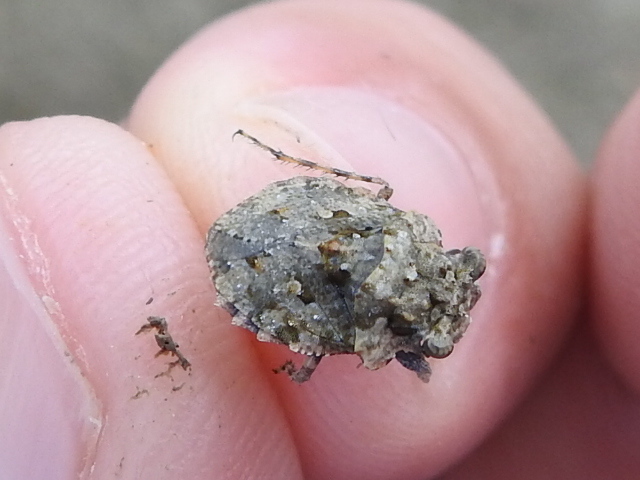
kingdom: Animalia
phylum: Arthropoda
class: Insecta
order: Hemiptera
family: Gelastocoridae
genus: Gelastocoris
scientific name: Gelastocoris oculatus
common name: Toad bug
